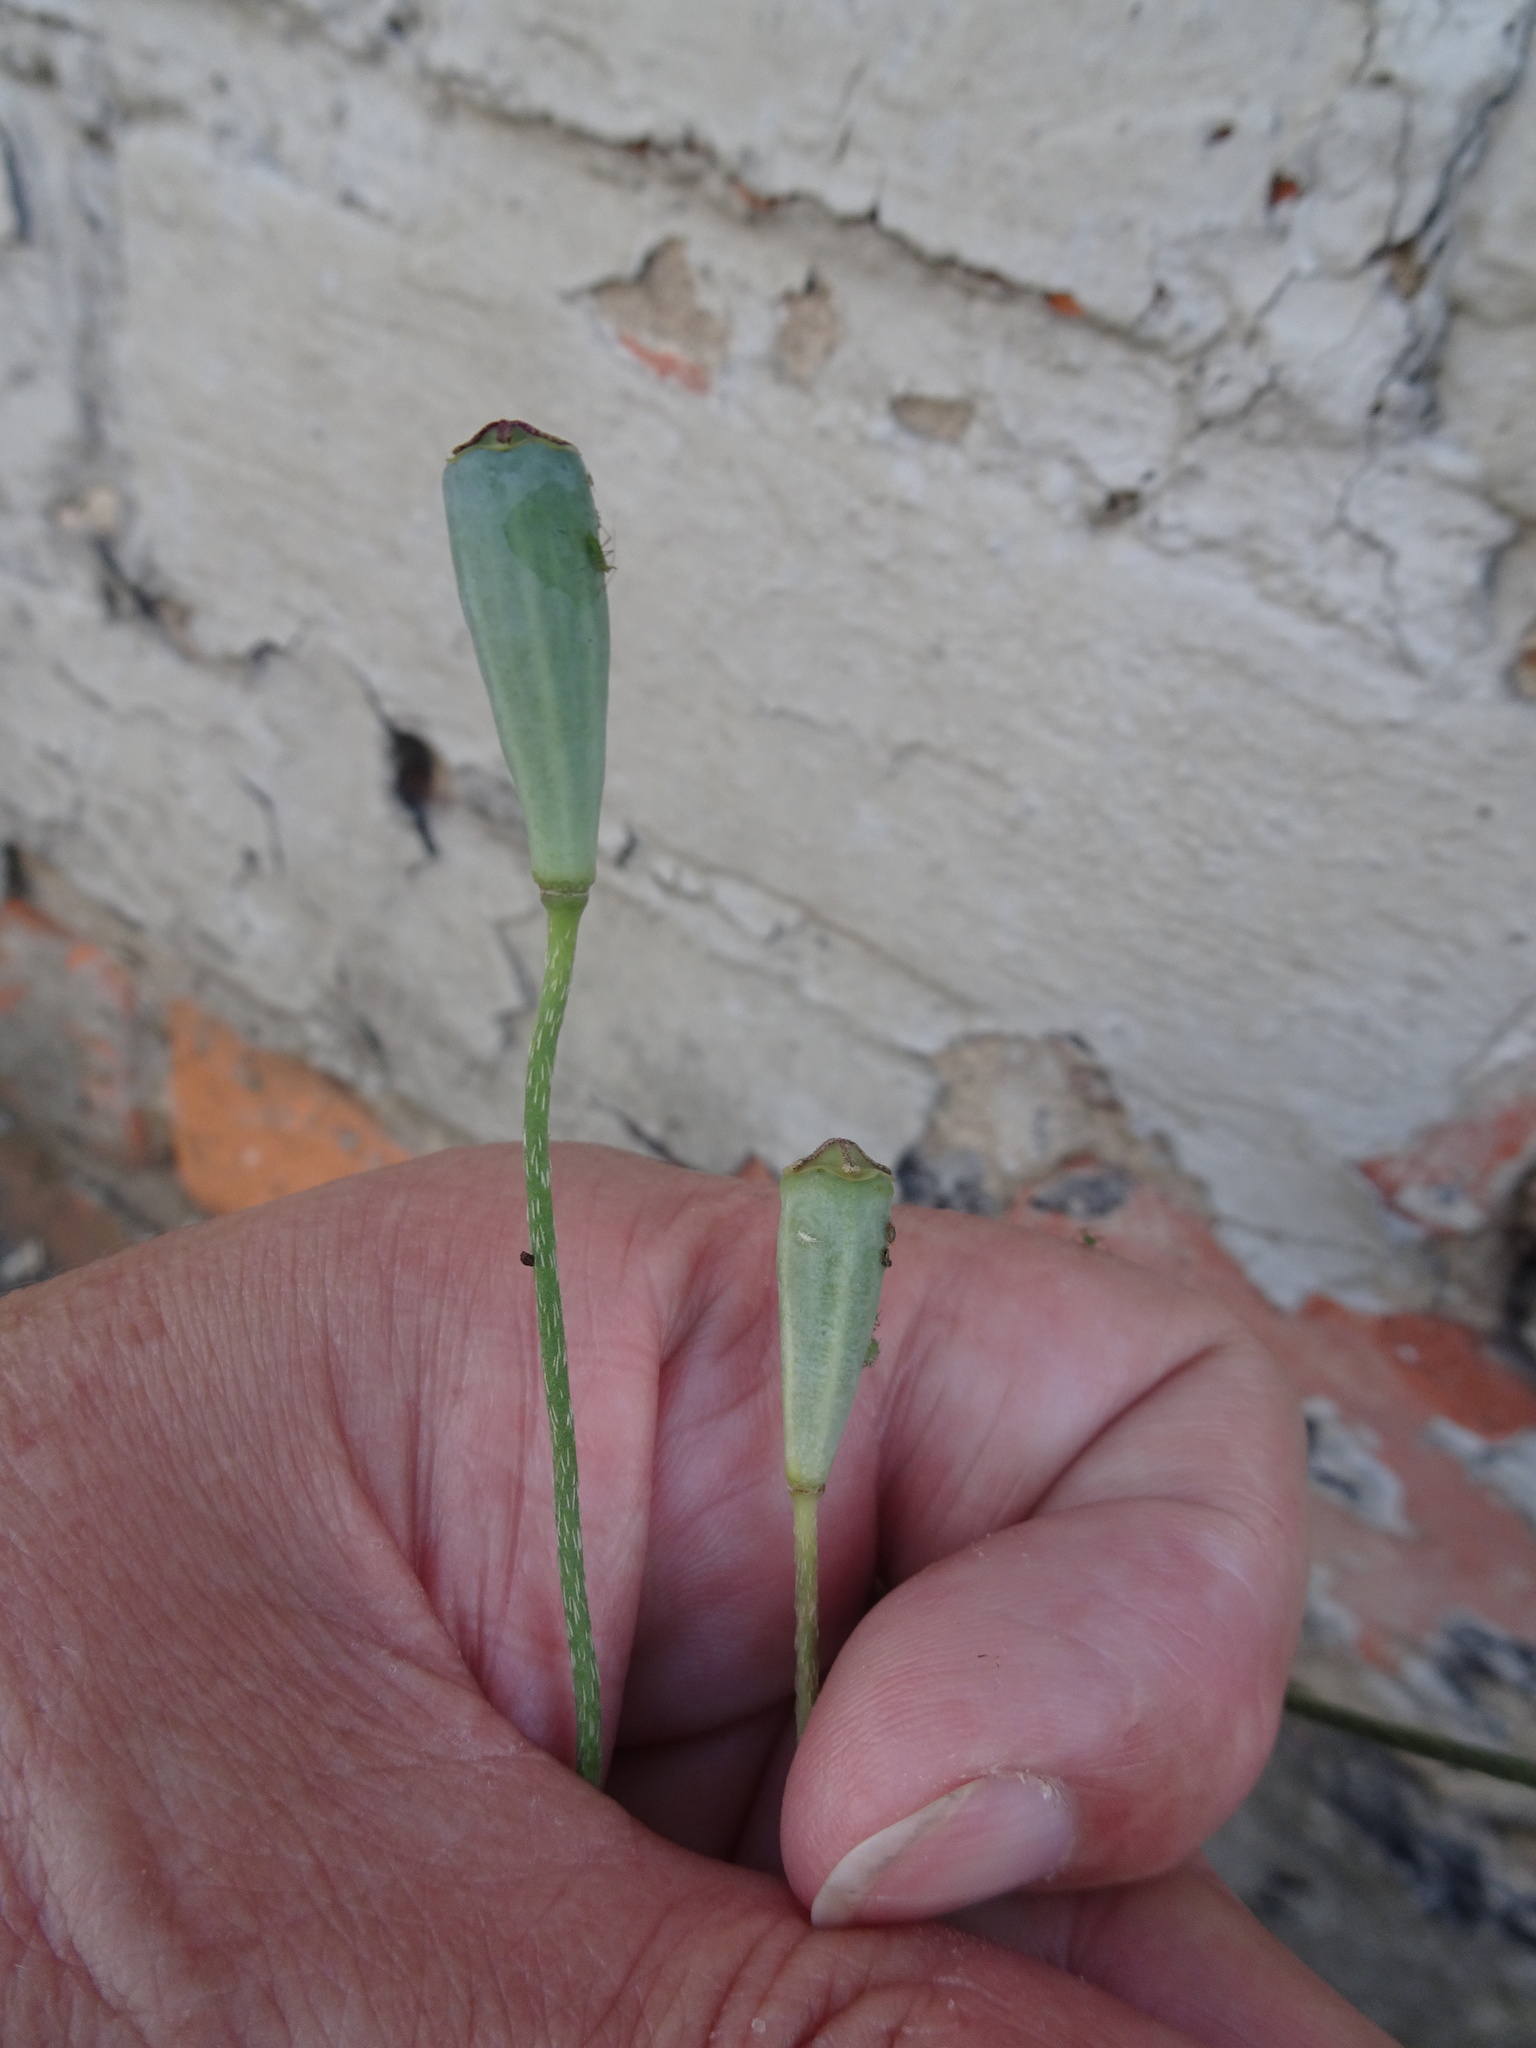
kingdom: Plantae
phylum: Tracheophyta
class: Magnoliopsida
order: Ranunculales
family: Papaveraceae
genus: Papaver
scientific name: Papaver dubium
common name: Long-headed poppy
